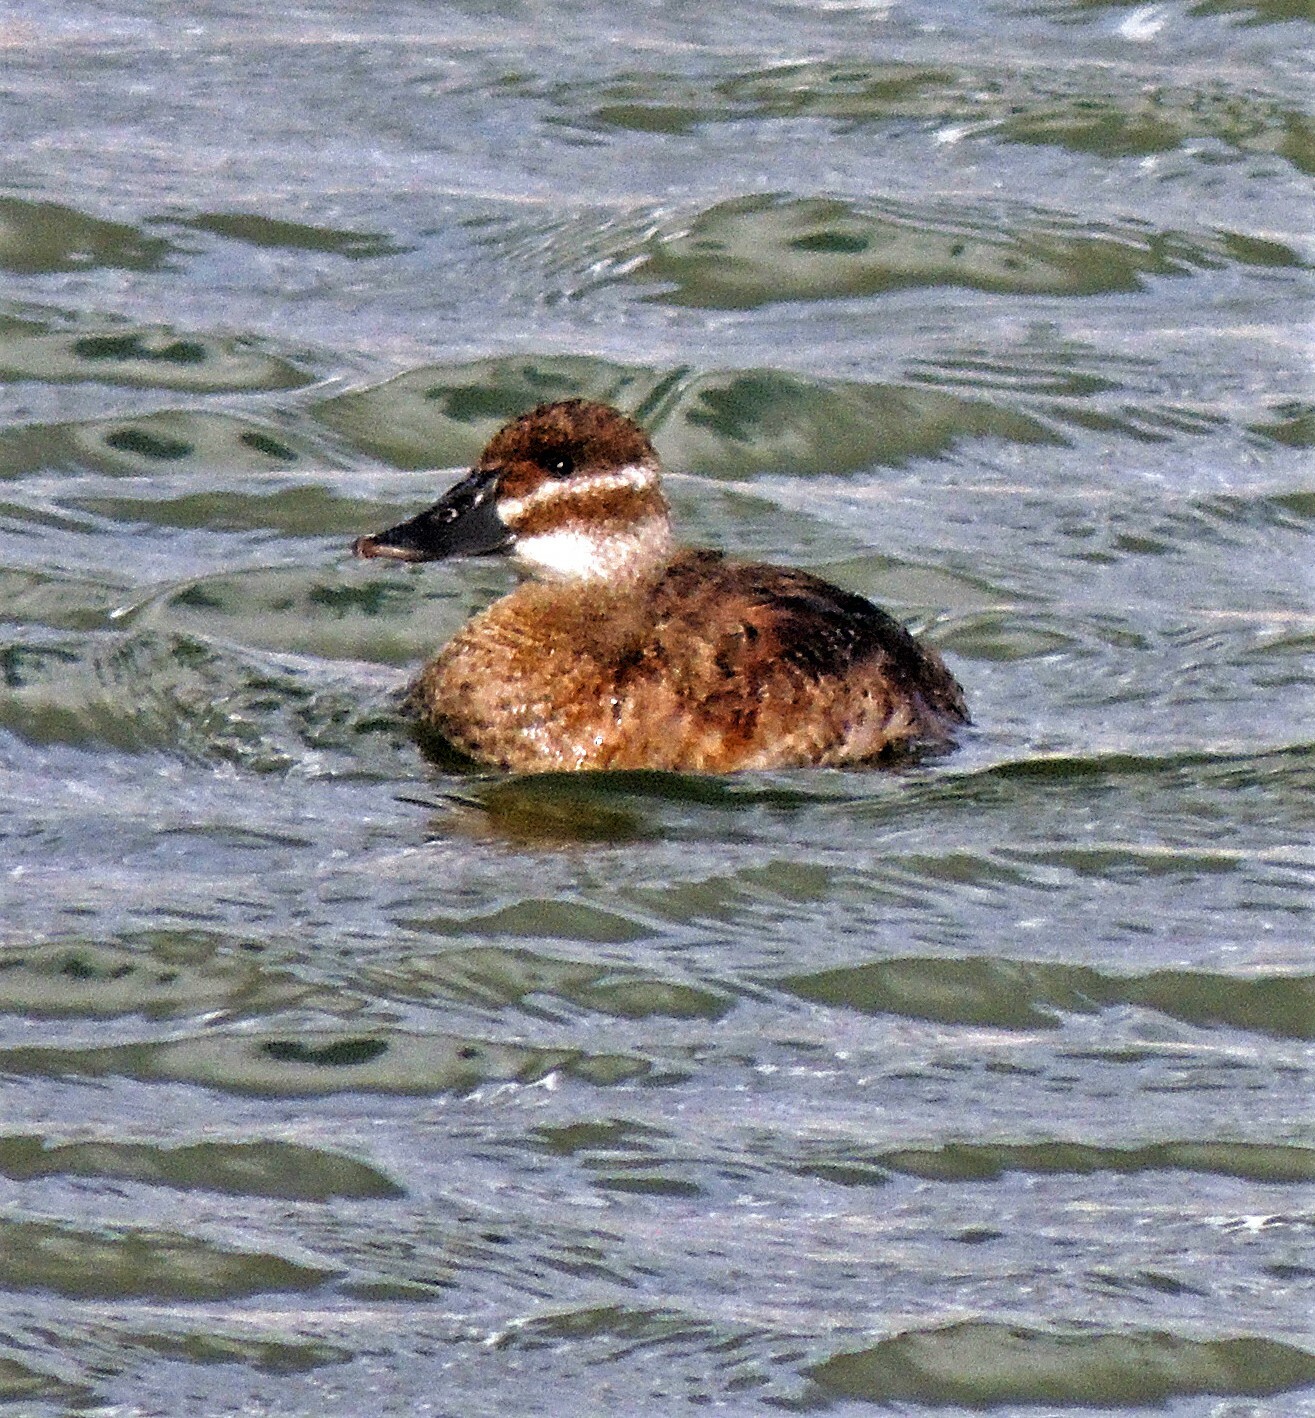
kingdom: Animalia
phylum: Chordata
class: Aves
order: Anseriformes
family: Anatidae
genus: Oxyura
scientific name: Oxyura vittata
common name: Lake duck
